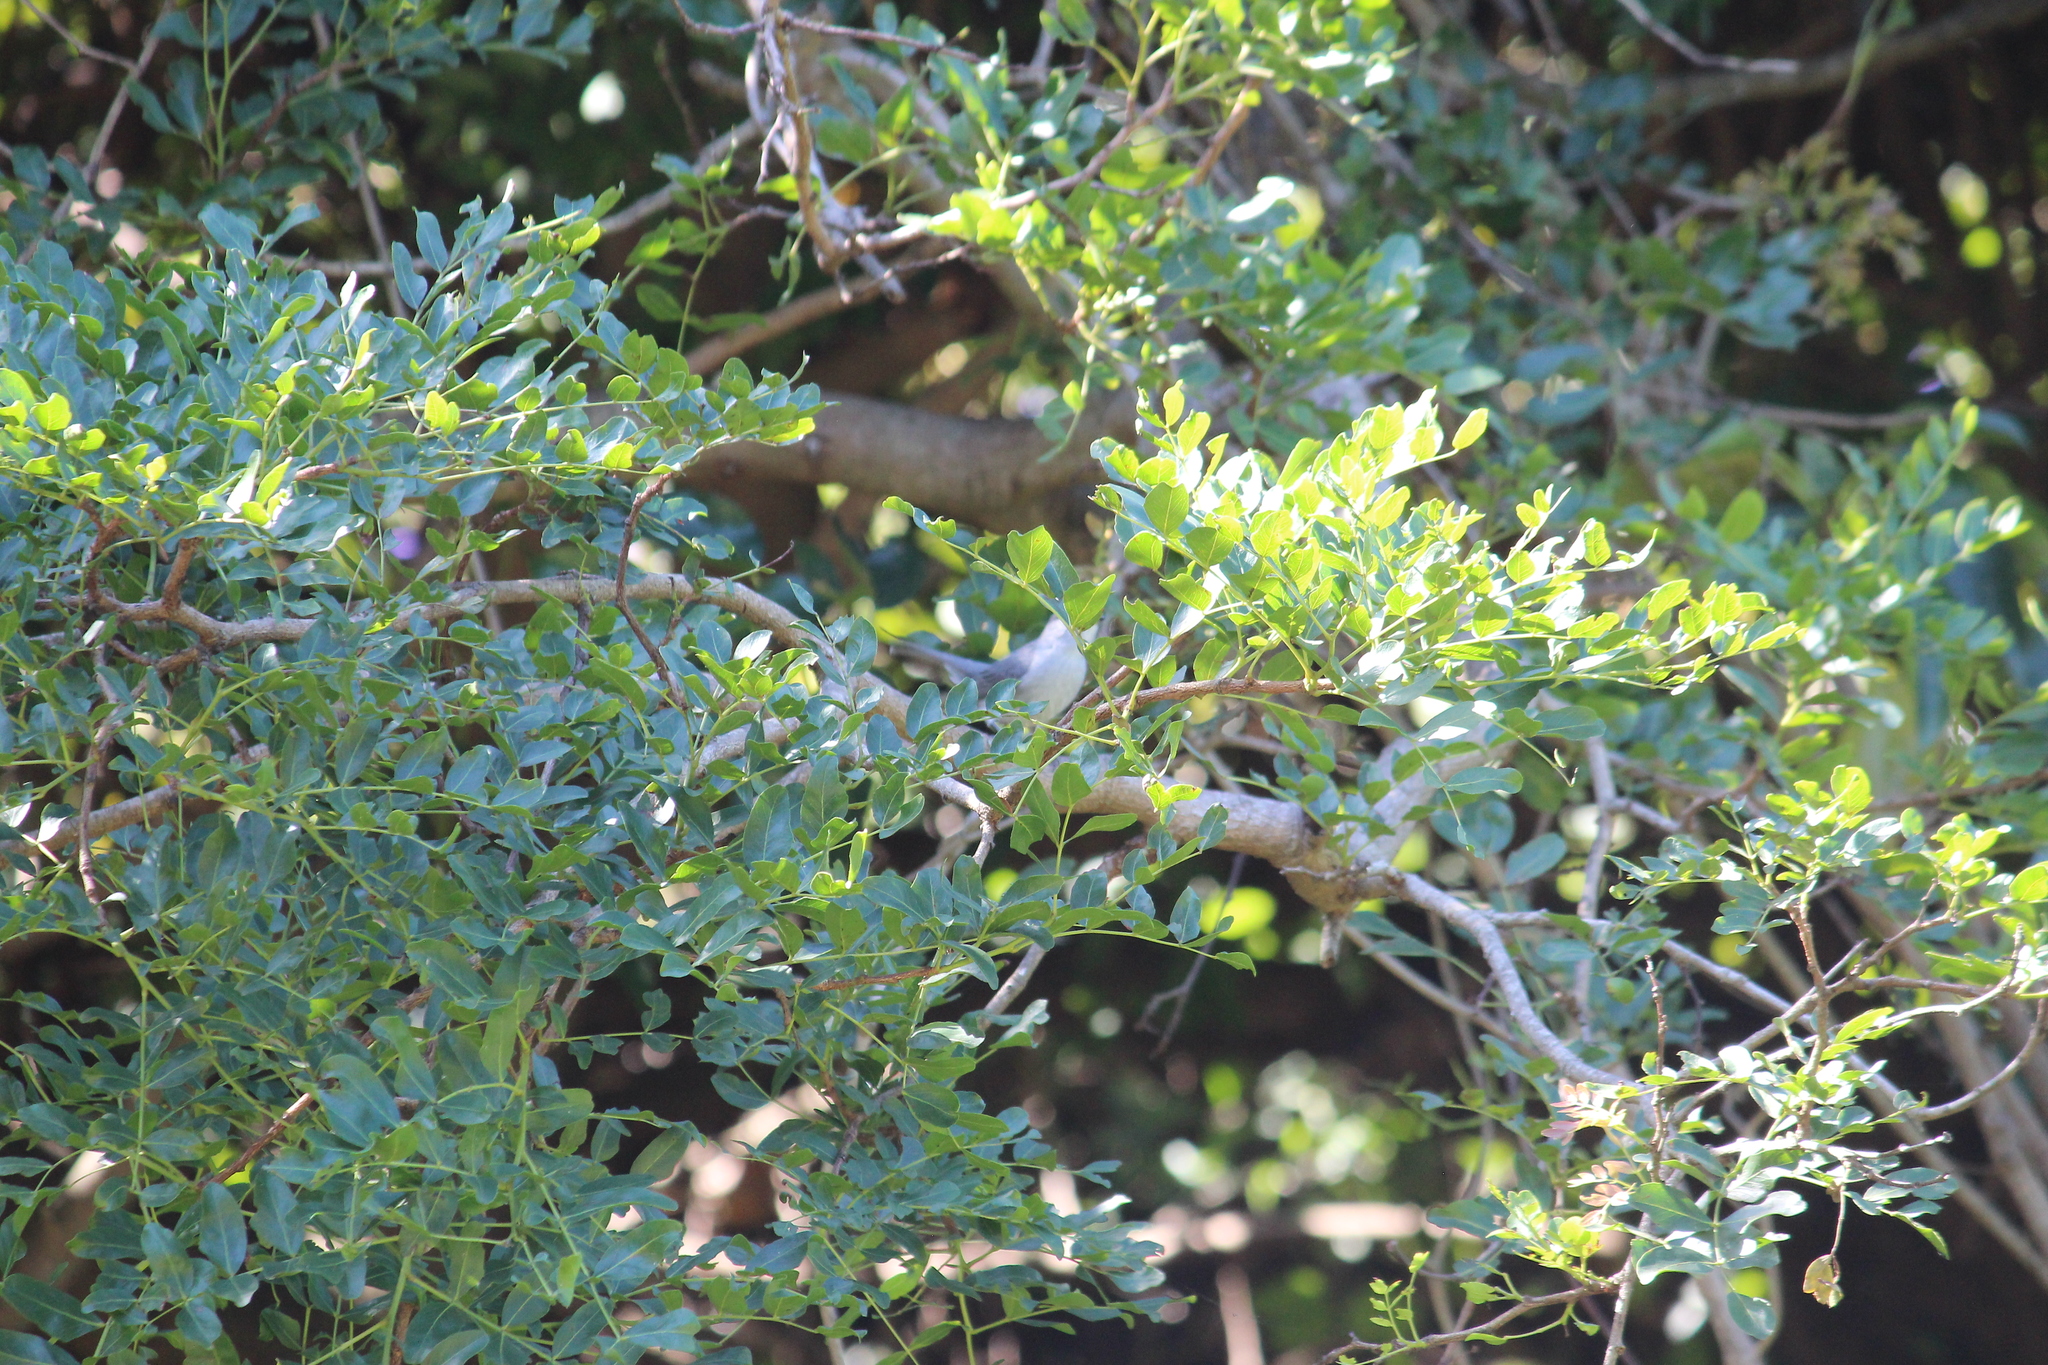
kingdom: Animalia
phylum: Chordata
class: Aves
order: Passeriformes
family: Muscicapidae
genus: Muscicapa
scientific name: Muscicapa caerulescens
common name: Ashy flycatcher
